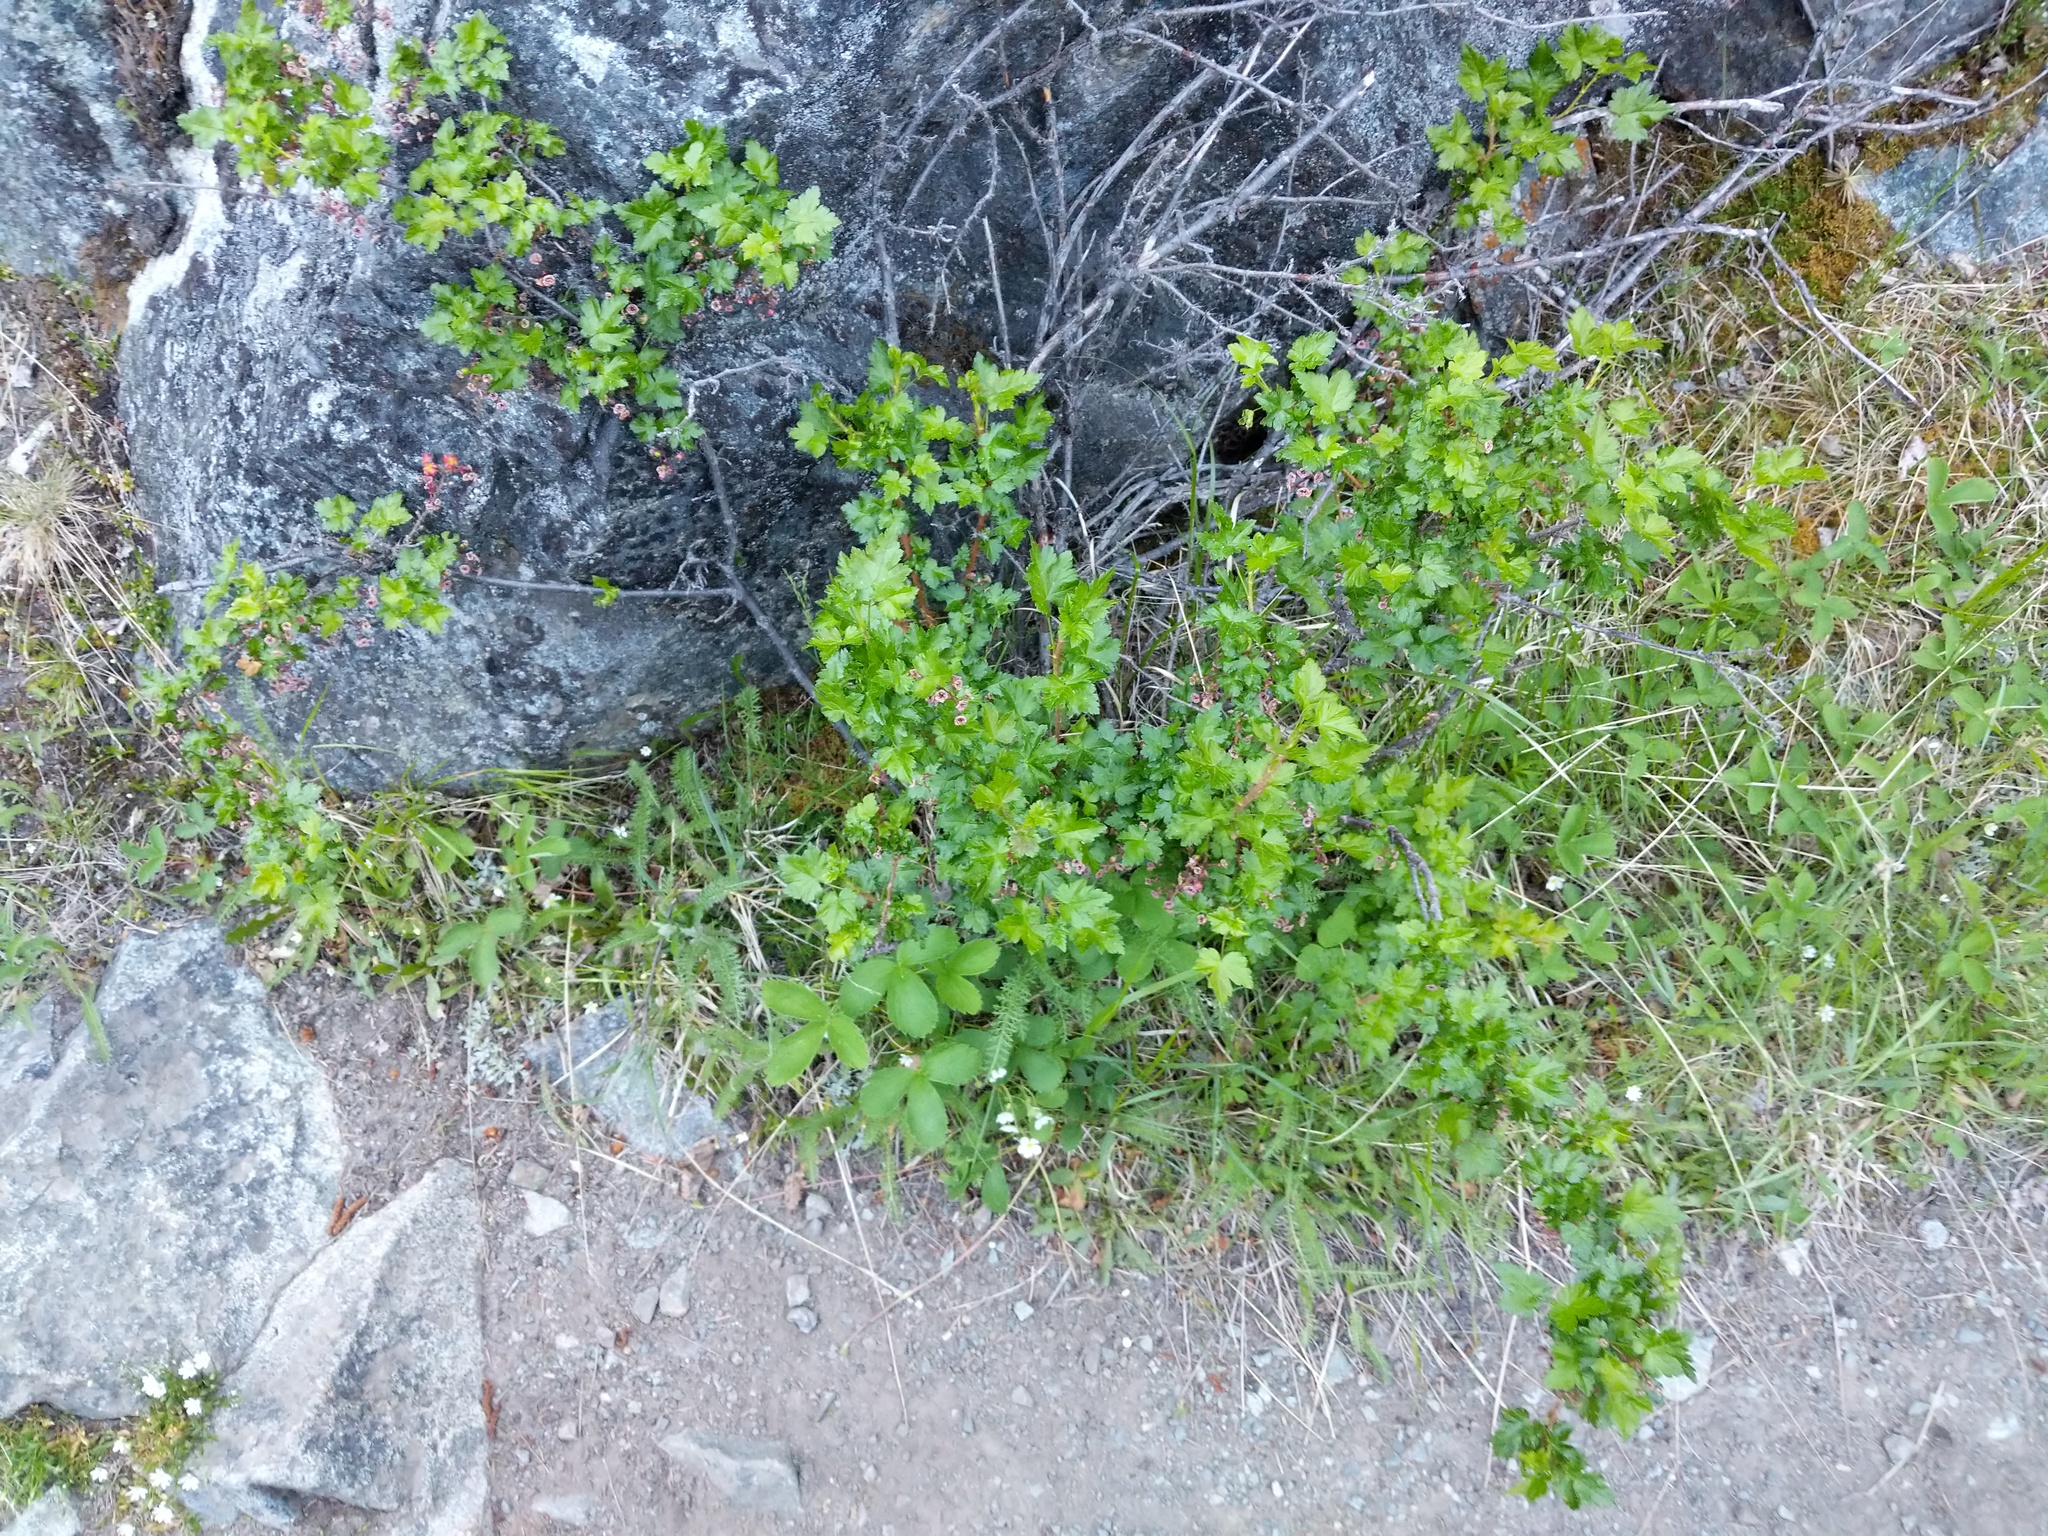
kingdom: Plantae
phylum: Tracheophyta
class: Magnoliopsida
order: Saxifragales
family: Grossulariaceae
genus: Ribes
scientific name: Ribes lacustre
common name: Black gooseberry
